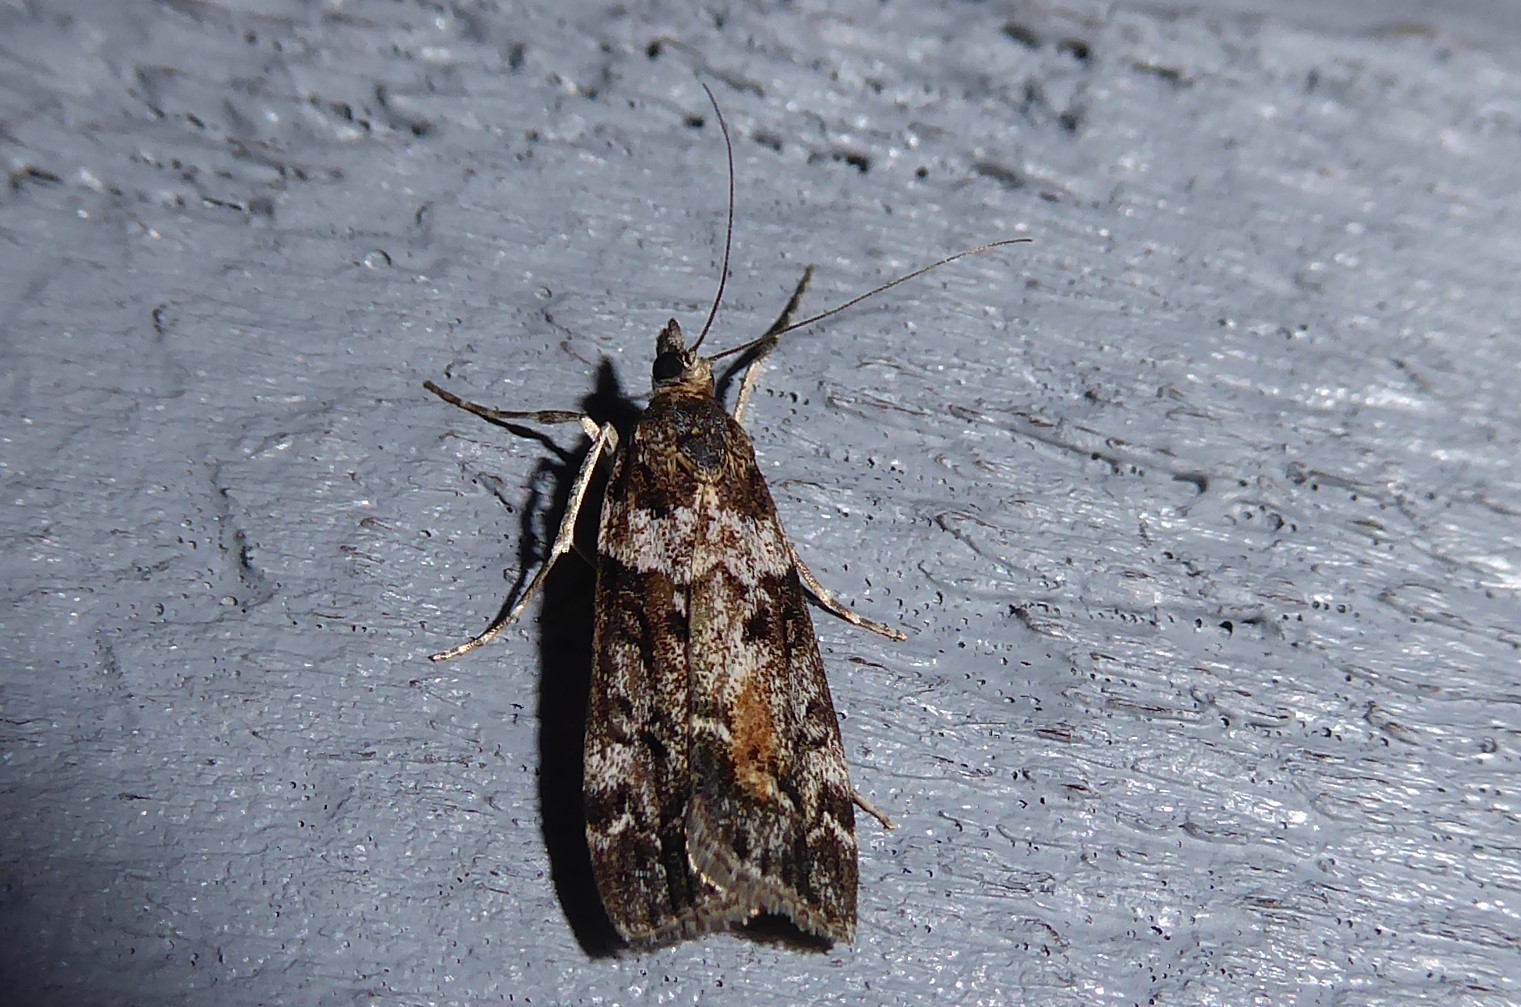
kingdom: Animalia
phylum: Arthropoda
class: Insecta
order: Lepidoptera
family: Crambidae
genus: Eudonia
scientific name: Eudonia submarginalis
